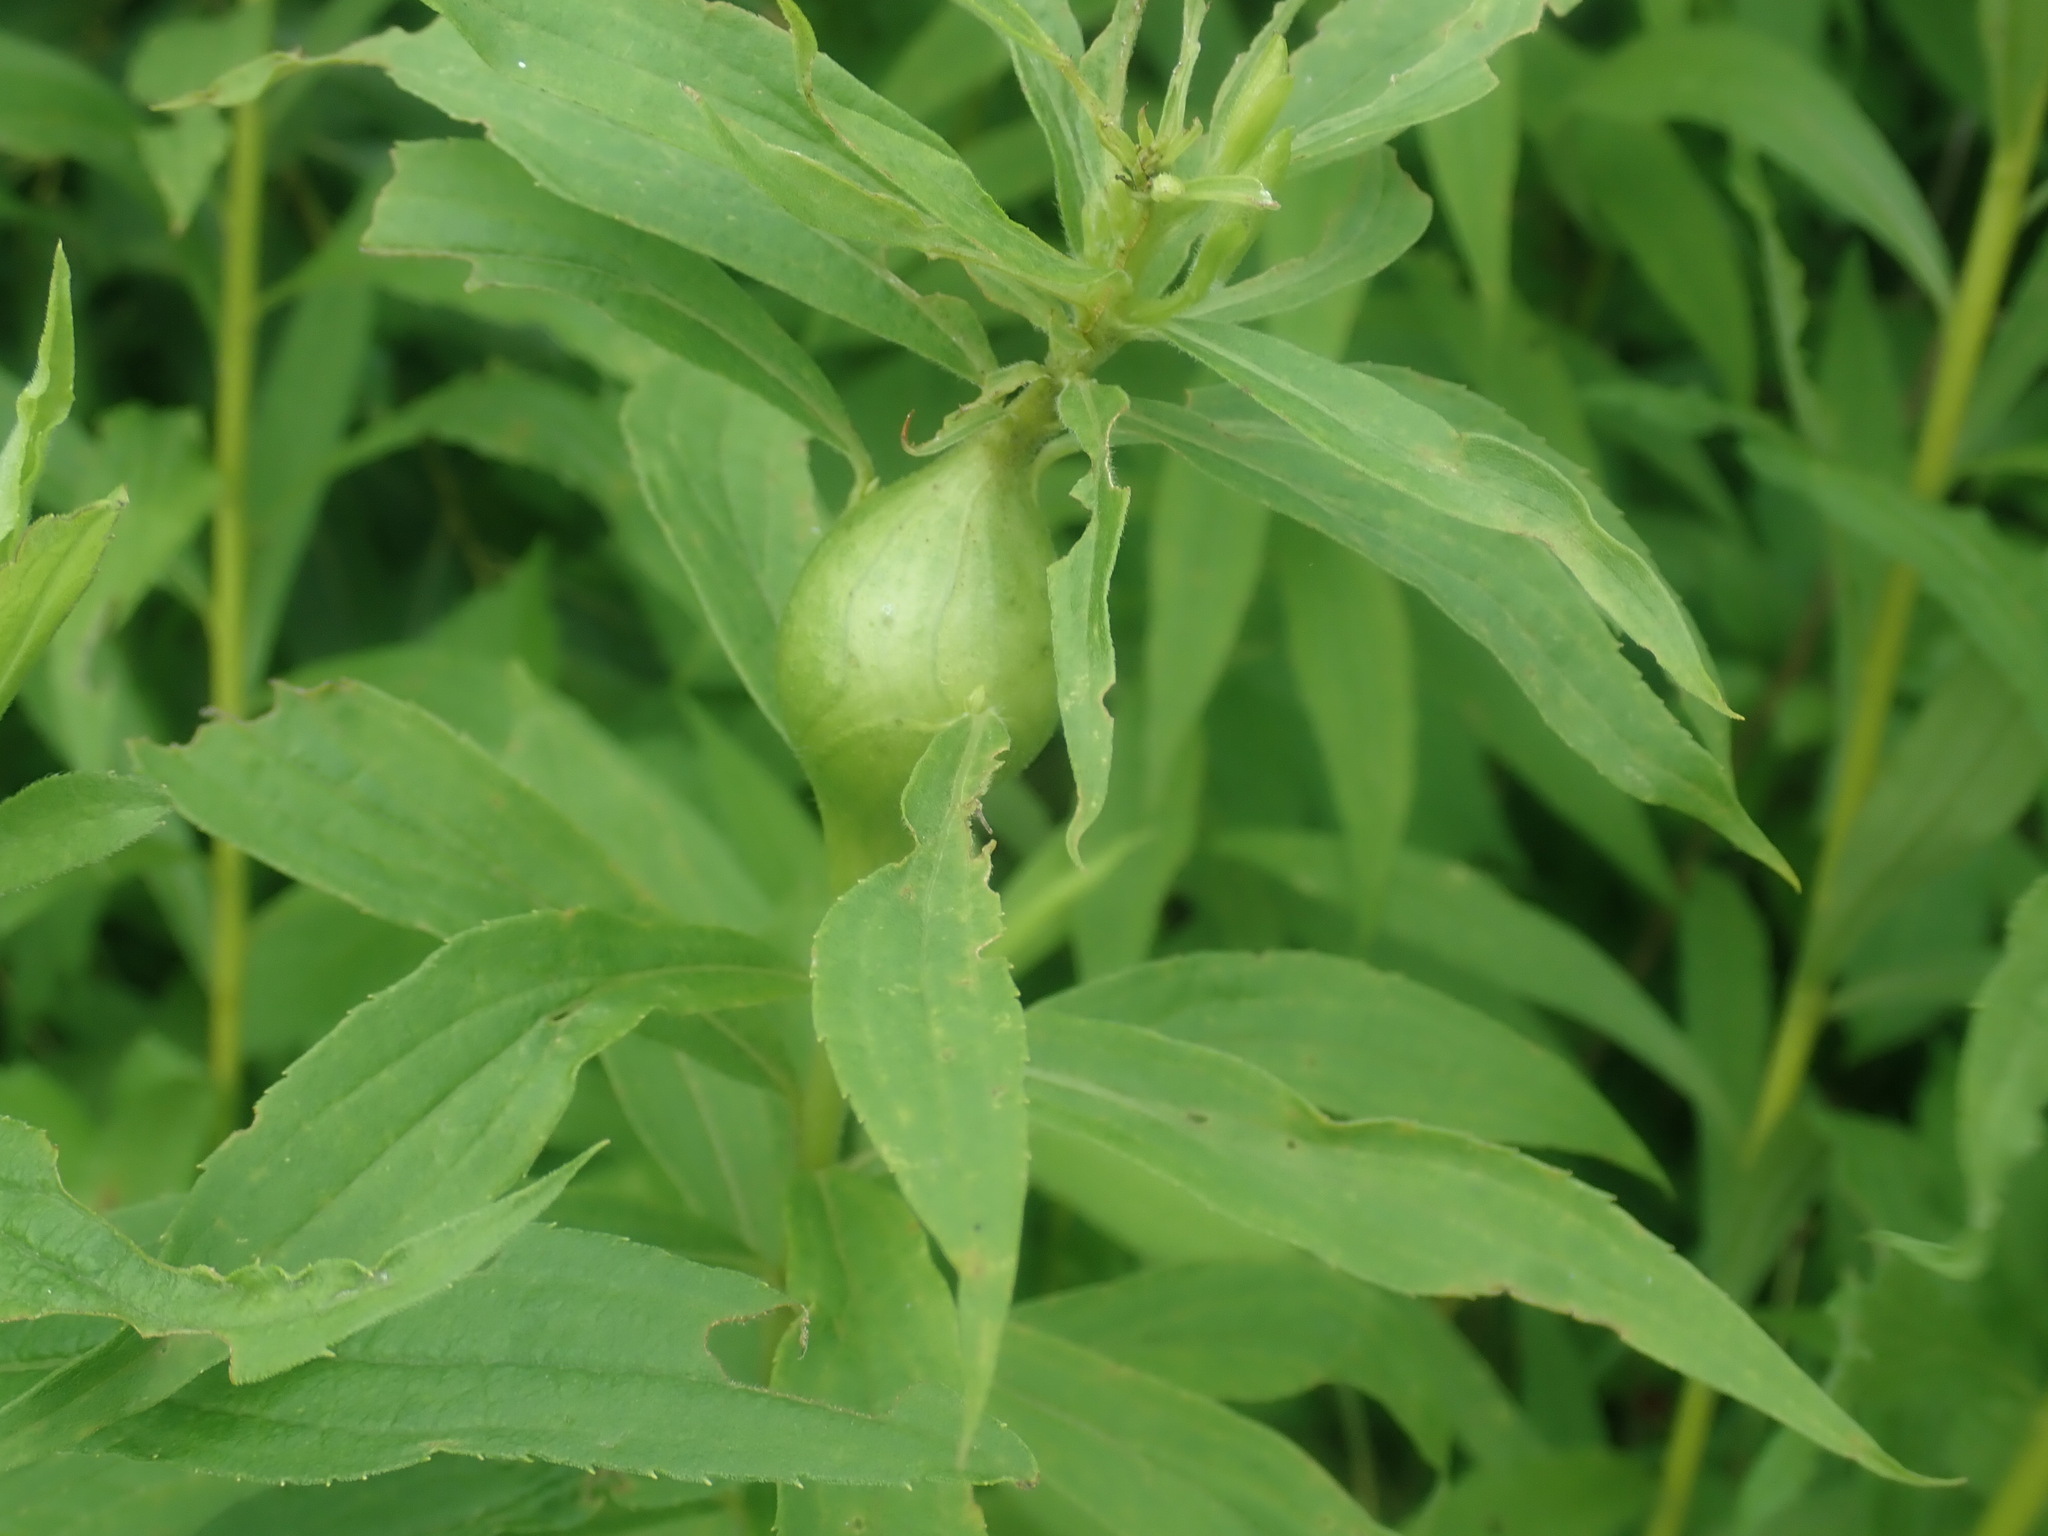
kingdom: Animalia
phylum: Arthropoda
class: Insecta
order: Diptera
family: Tephritidae
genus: Eurosta
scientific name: Eurosta solidaginis
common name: Goldenrod gall fly
